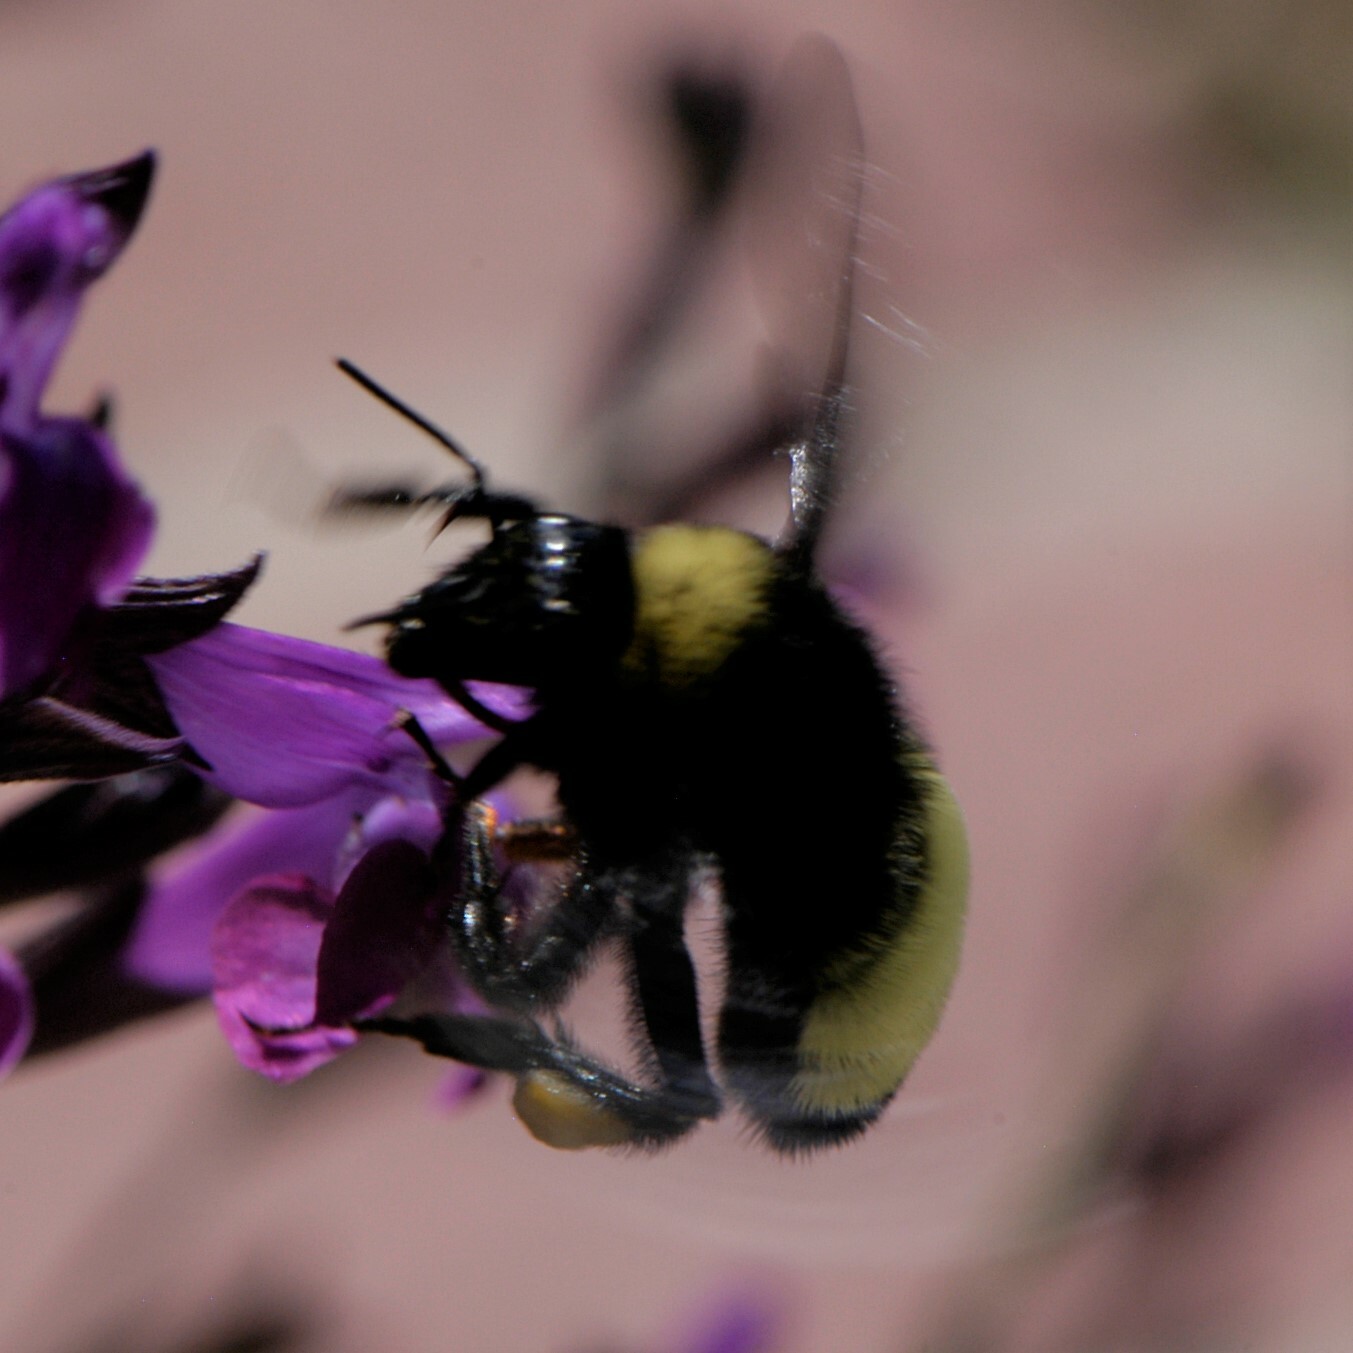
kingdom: Animalia
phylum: Arthropoda
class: Insecta
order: Hymenoptera
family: Apidae
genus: Bombus
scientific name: Bombus pensylvanicus
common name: Bumble bee
